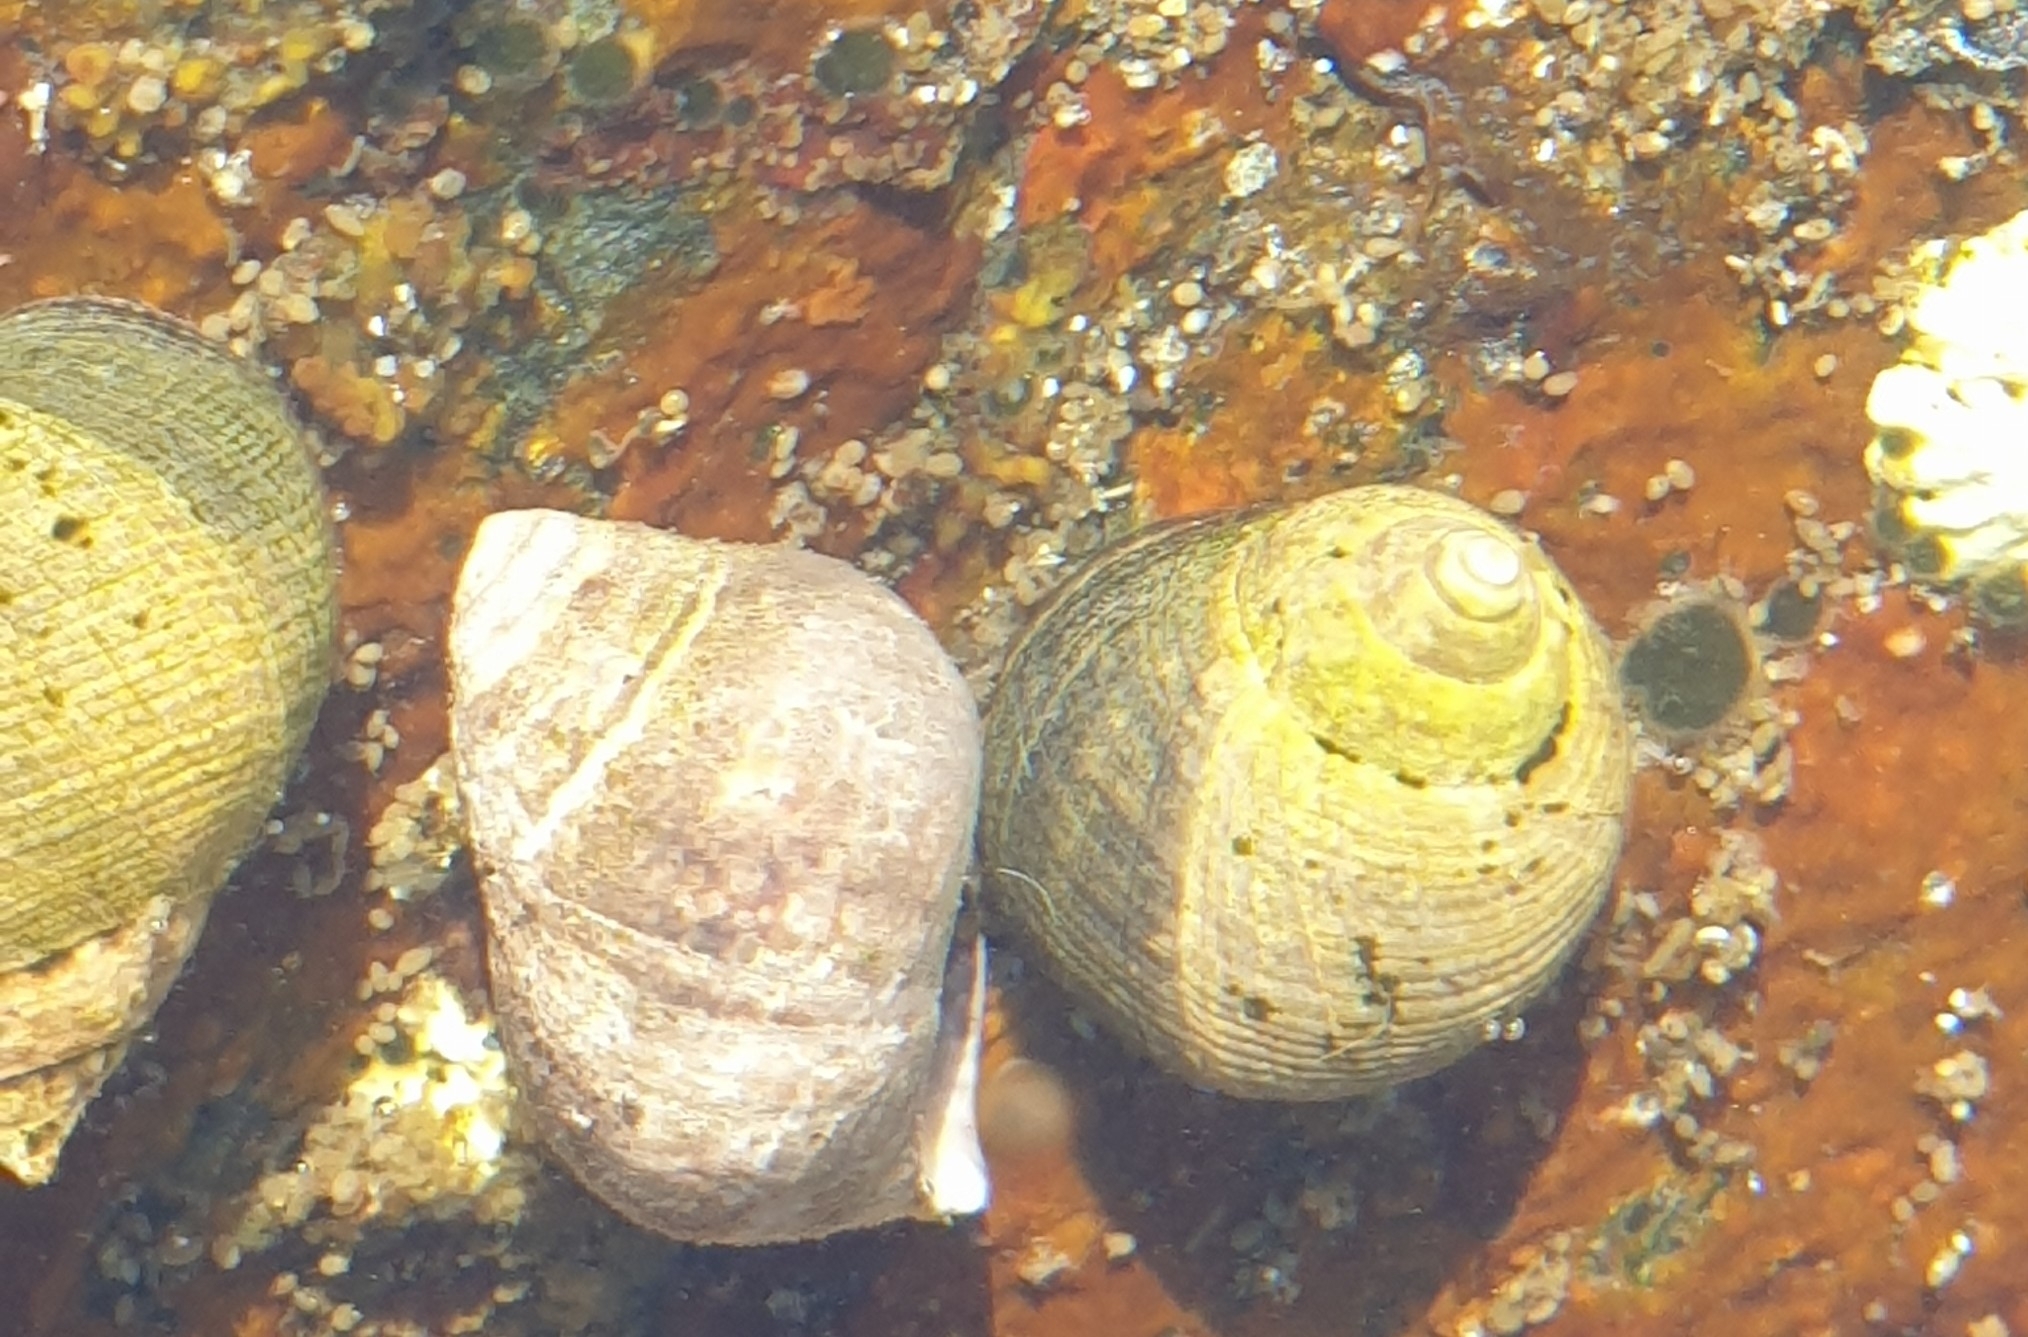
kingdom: Animalia
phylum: Mollusca
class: Gastropoda
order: Littorinimorpha
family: Littorinidae
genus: Littorina
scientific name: Littorina littorea
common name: Common periwinkle
